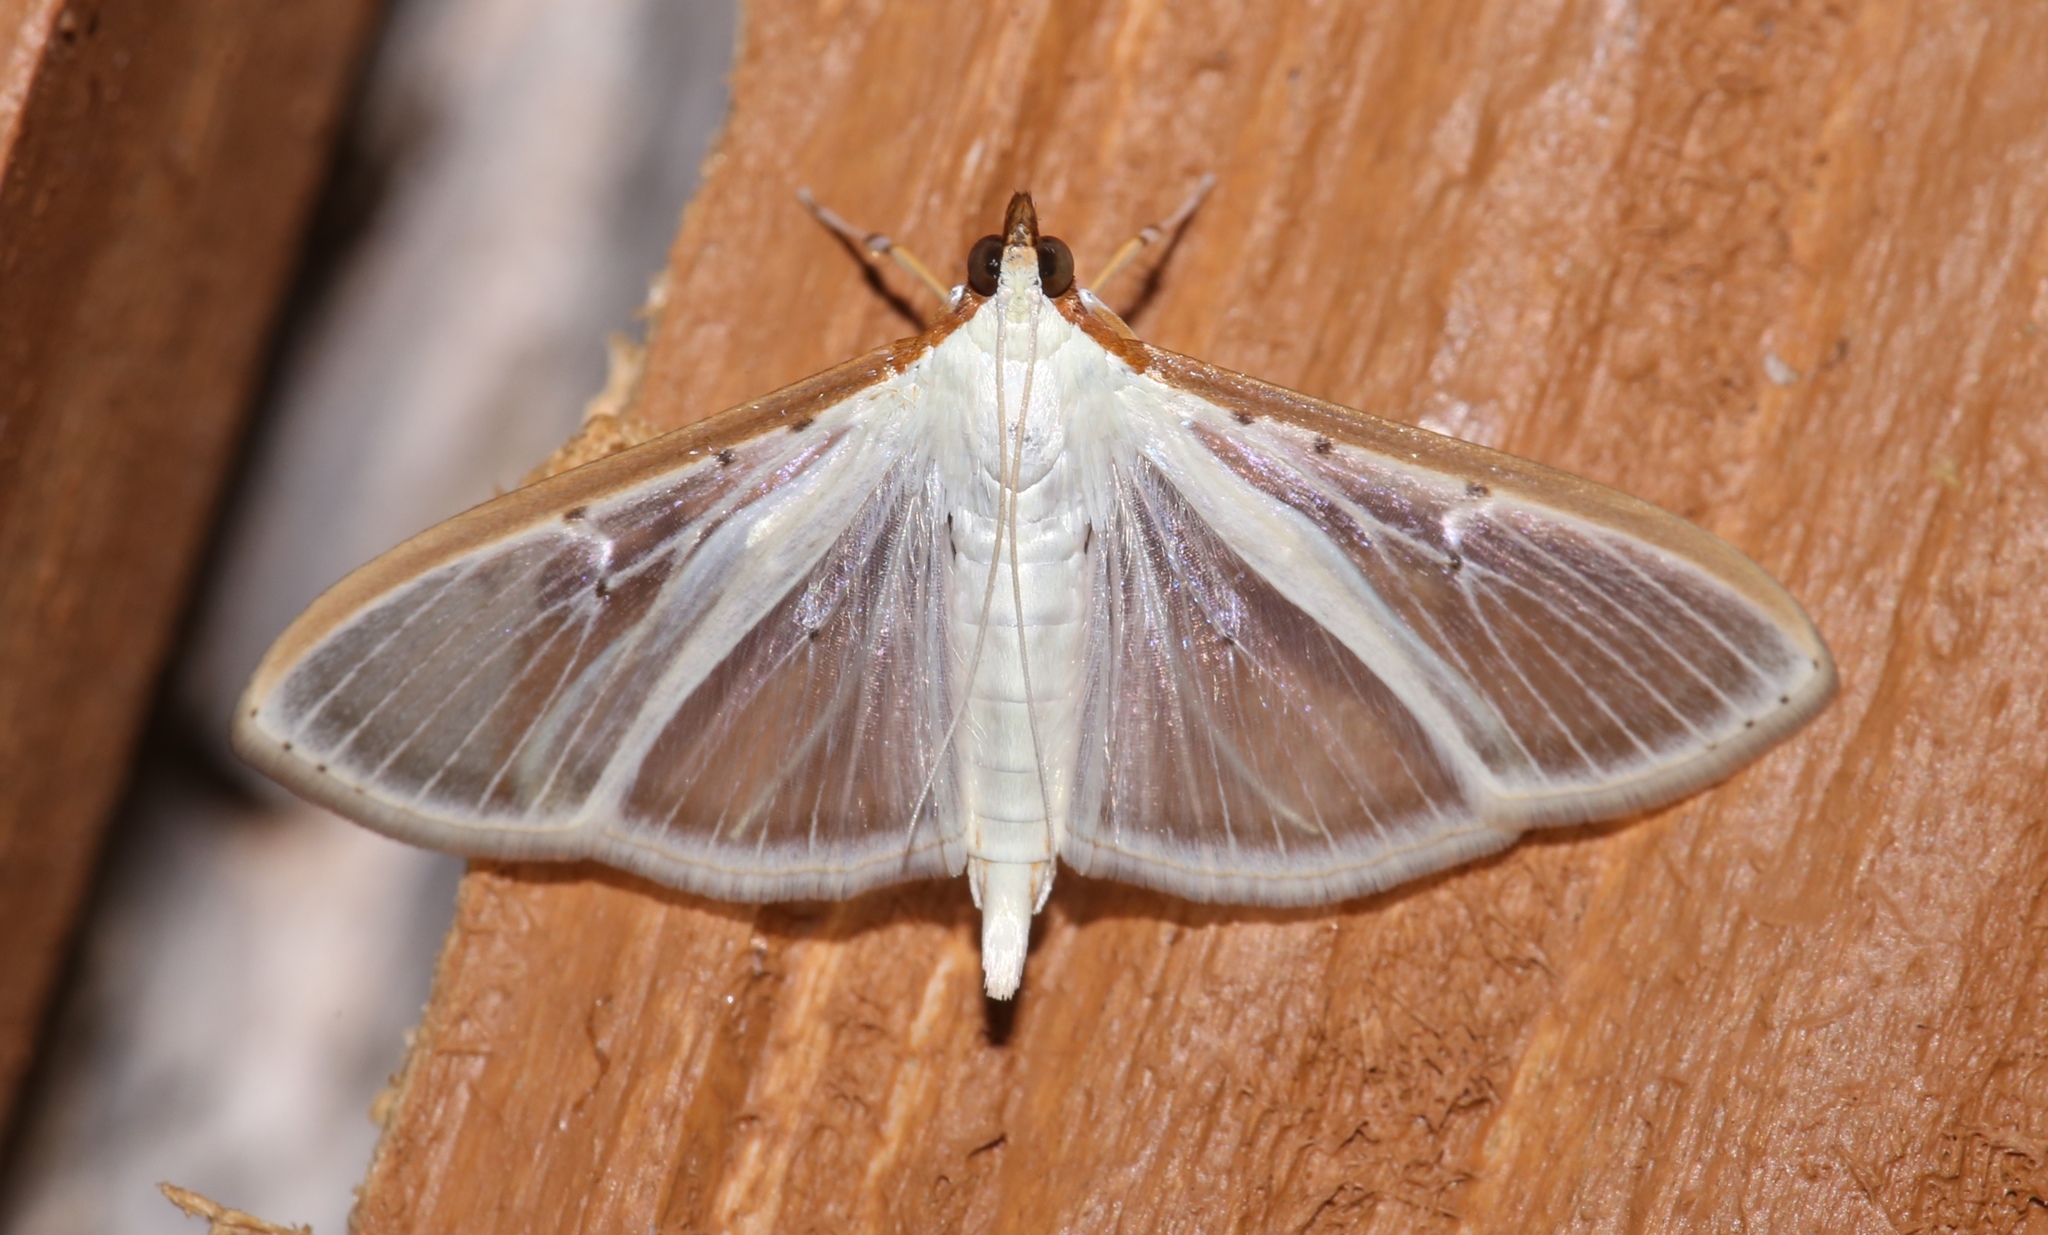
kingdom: Animalia
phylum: Arthropoda
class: Insecta
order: Lepidoptera
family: Crambidae
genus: Palpita
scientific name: Palpita quadristigmalis
